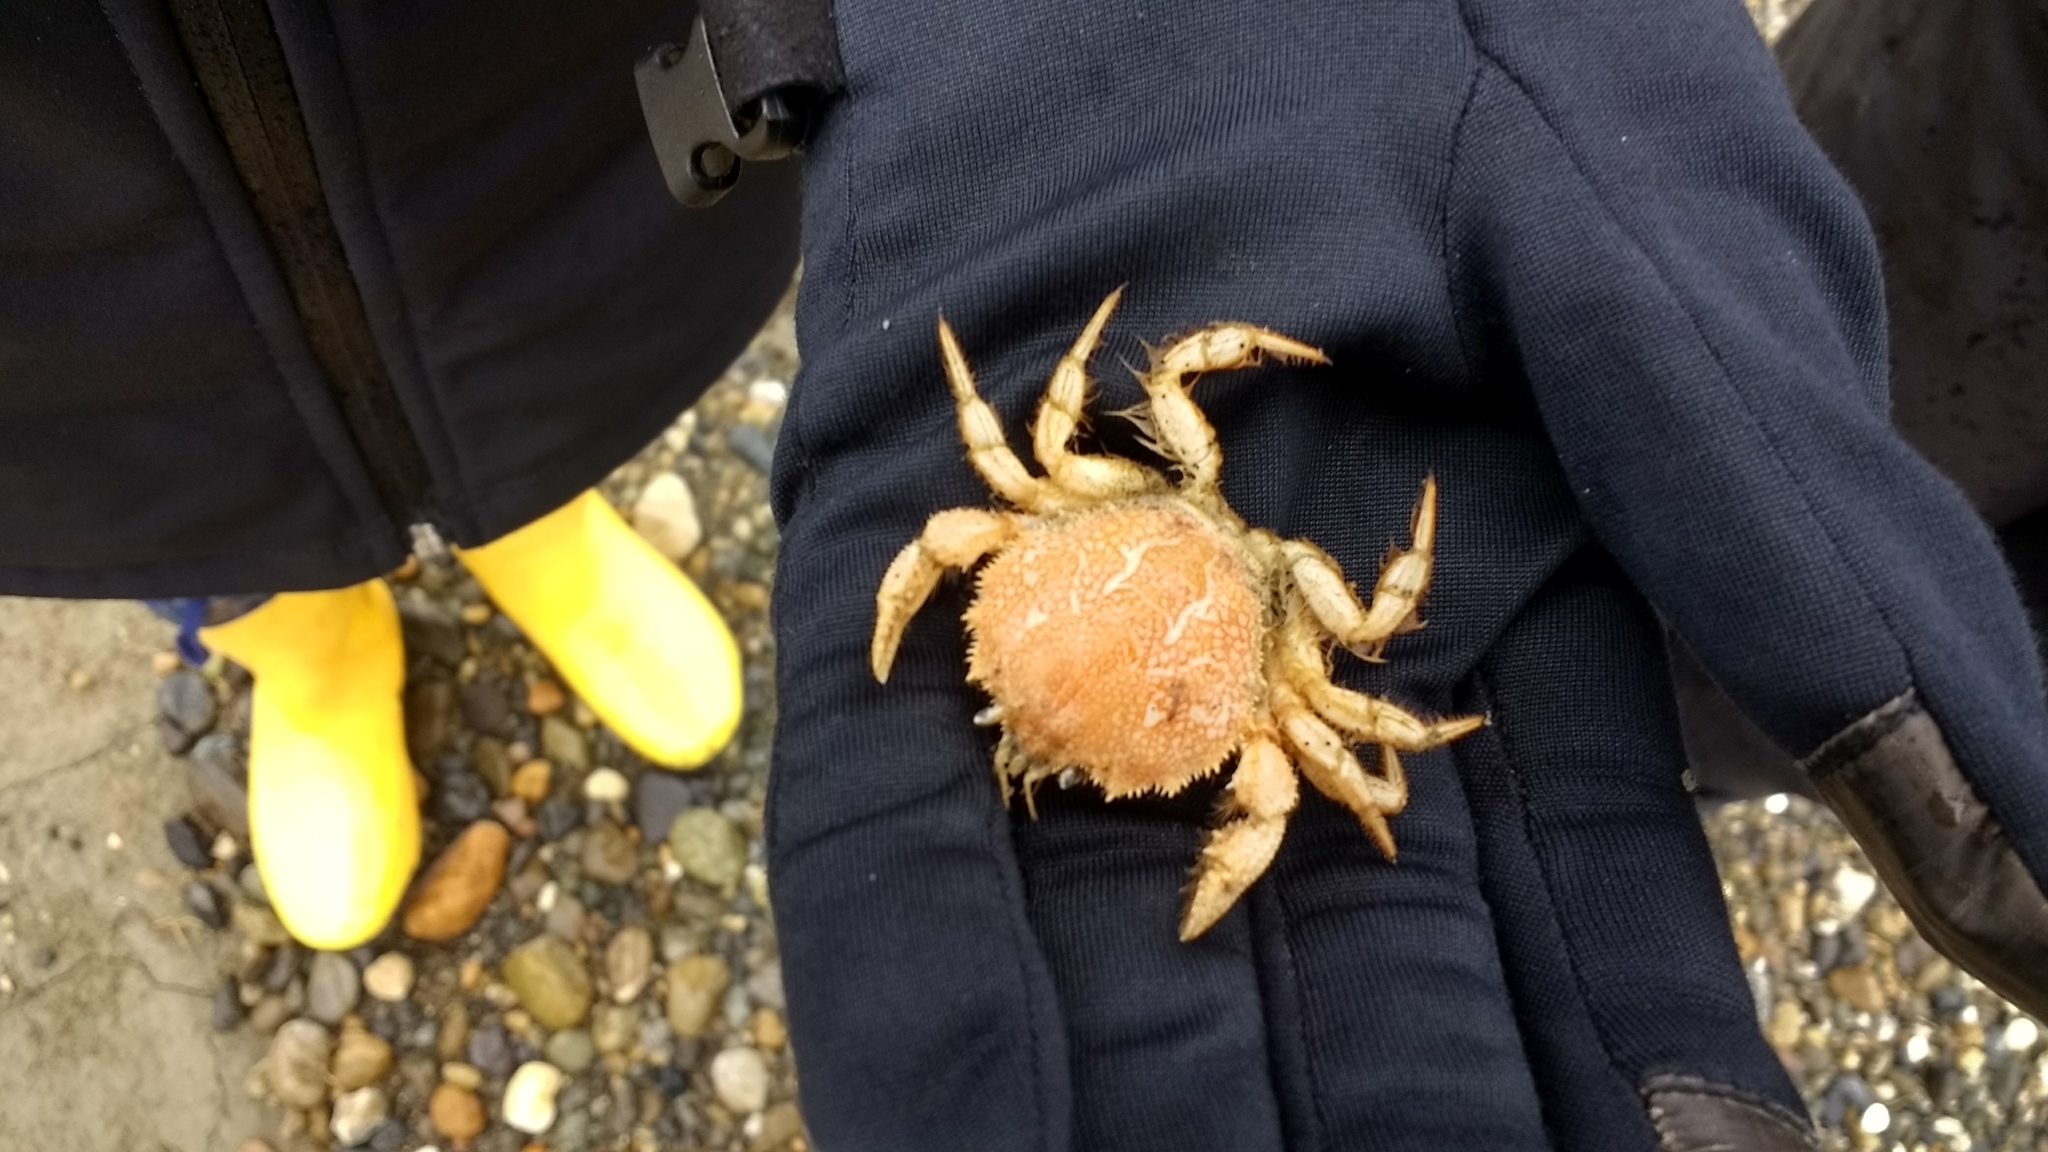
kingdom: Animalia
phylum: Arthropoda
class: Malacostraca
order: Decapoda
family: Trichopeltariidae
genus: Peltarion
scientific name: Peltarion spinulosum
